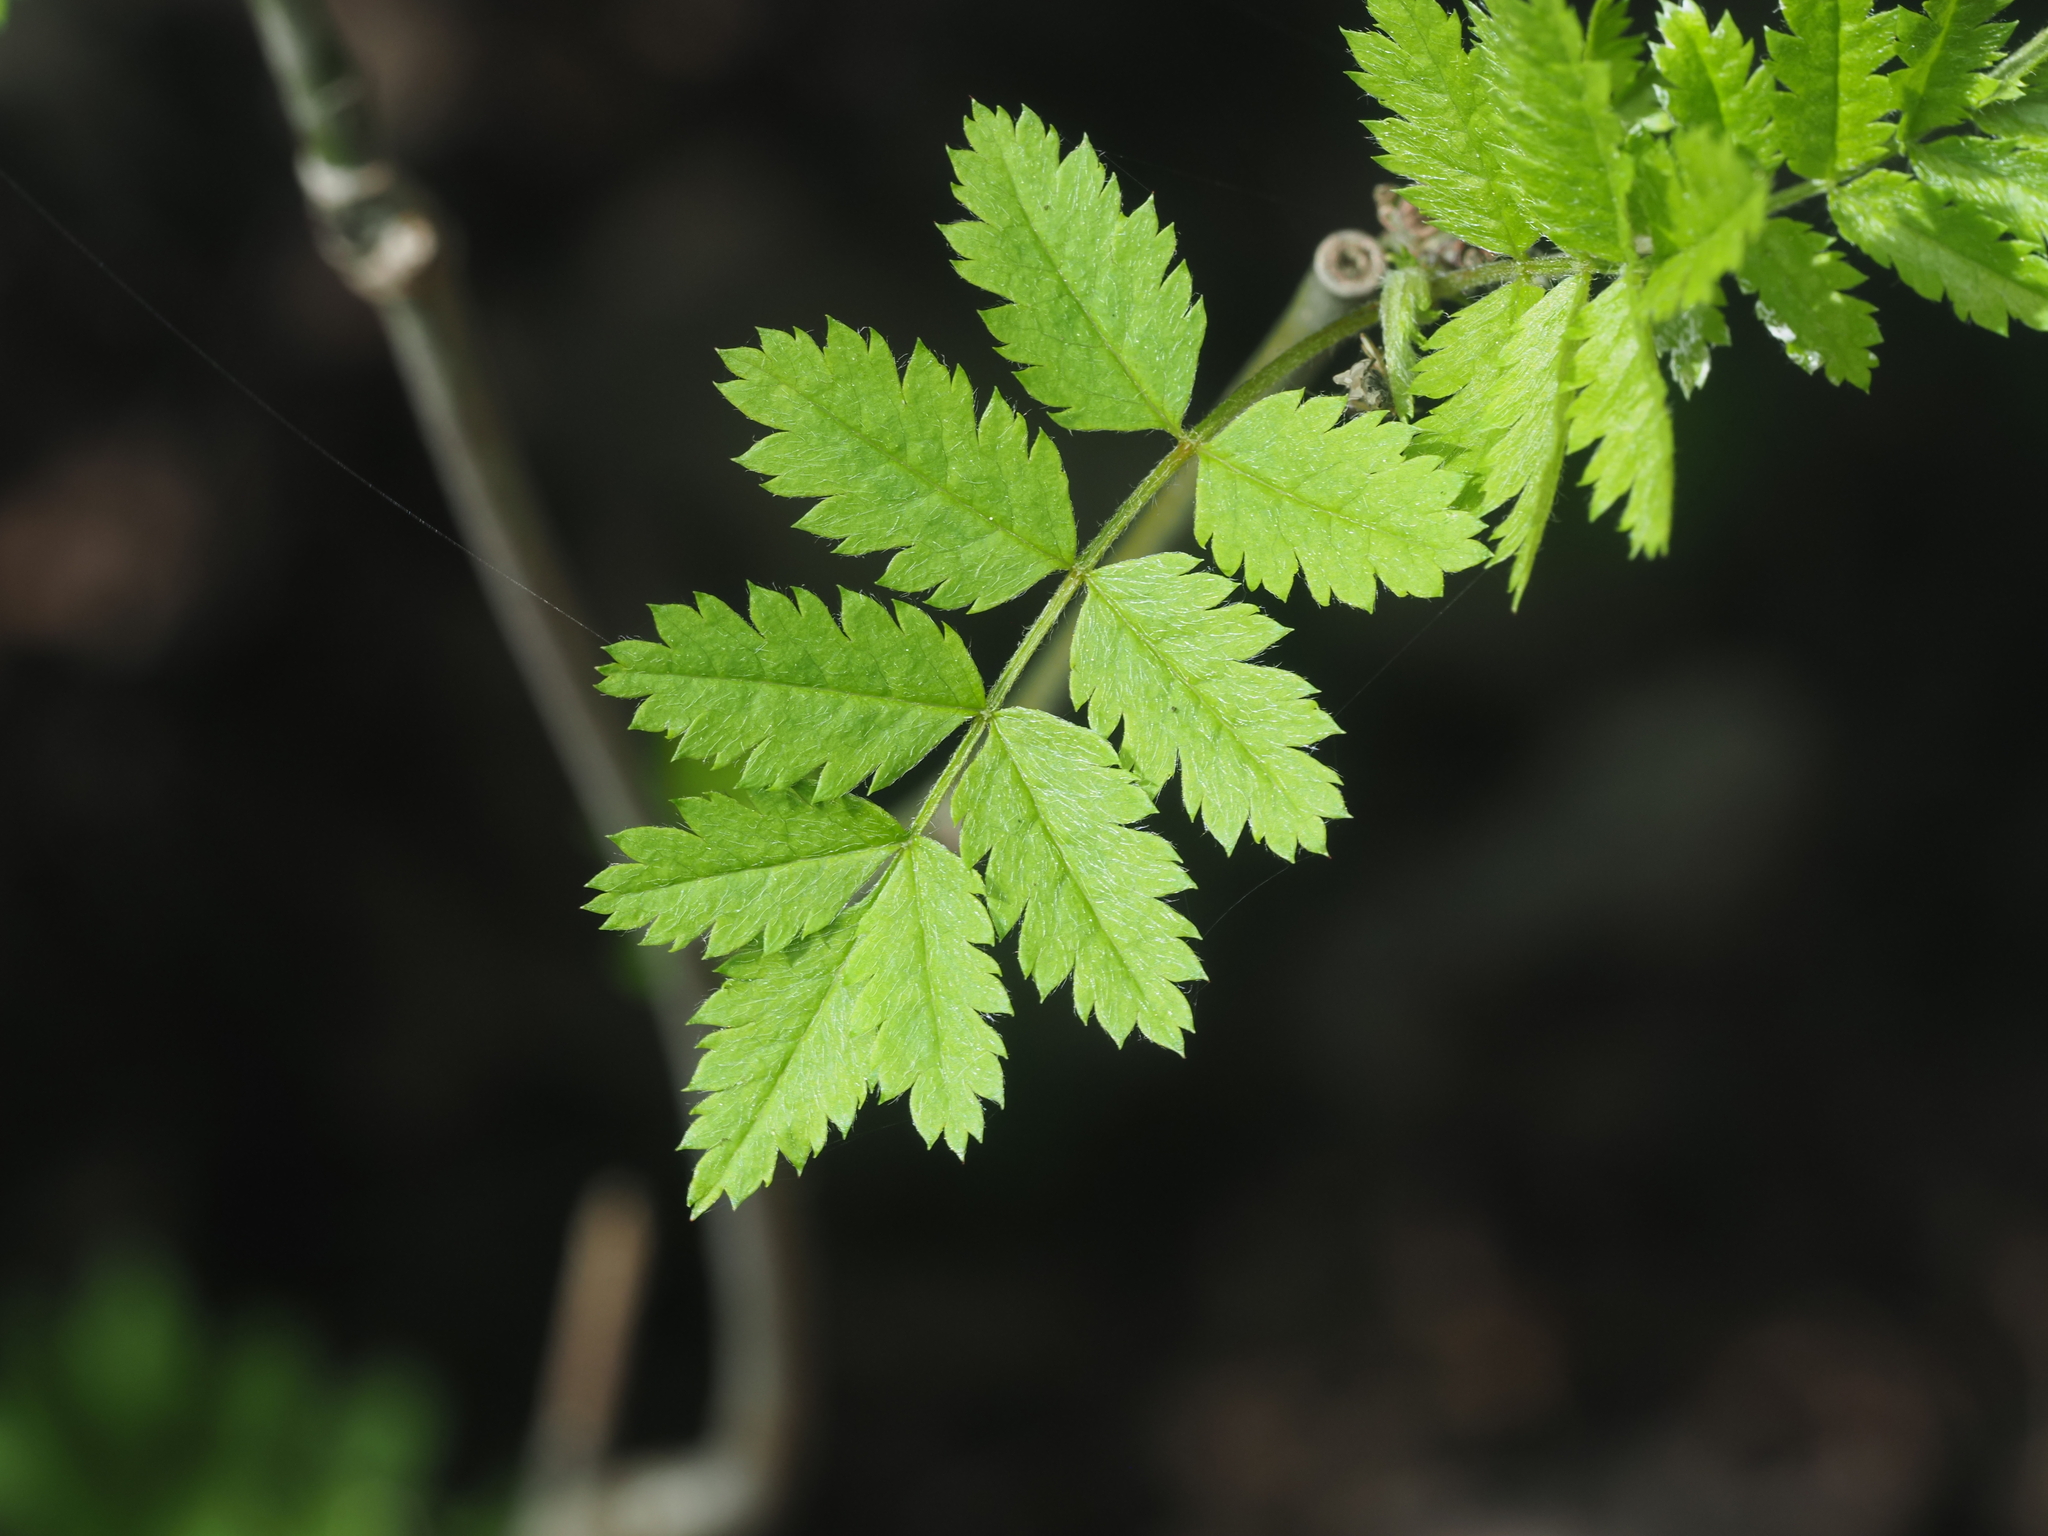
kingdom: Plantae
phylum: Tracheophyta
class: Magnoliopsida
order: Rosales
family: Rosaceae
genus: Sorbus
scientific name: Sorbus aucuparia
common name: Rowan
